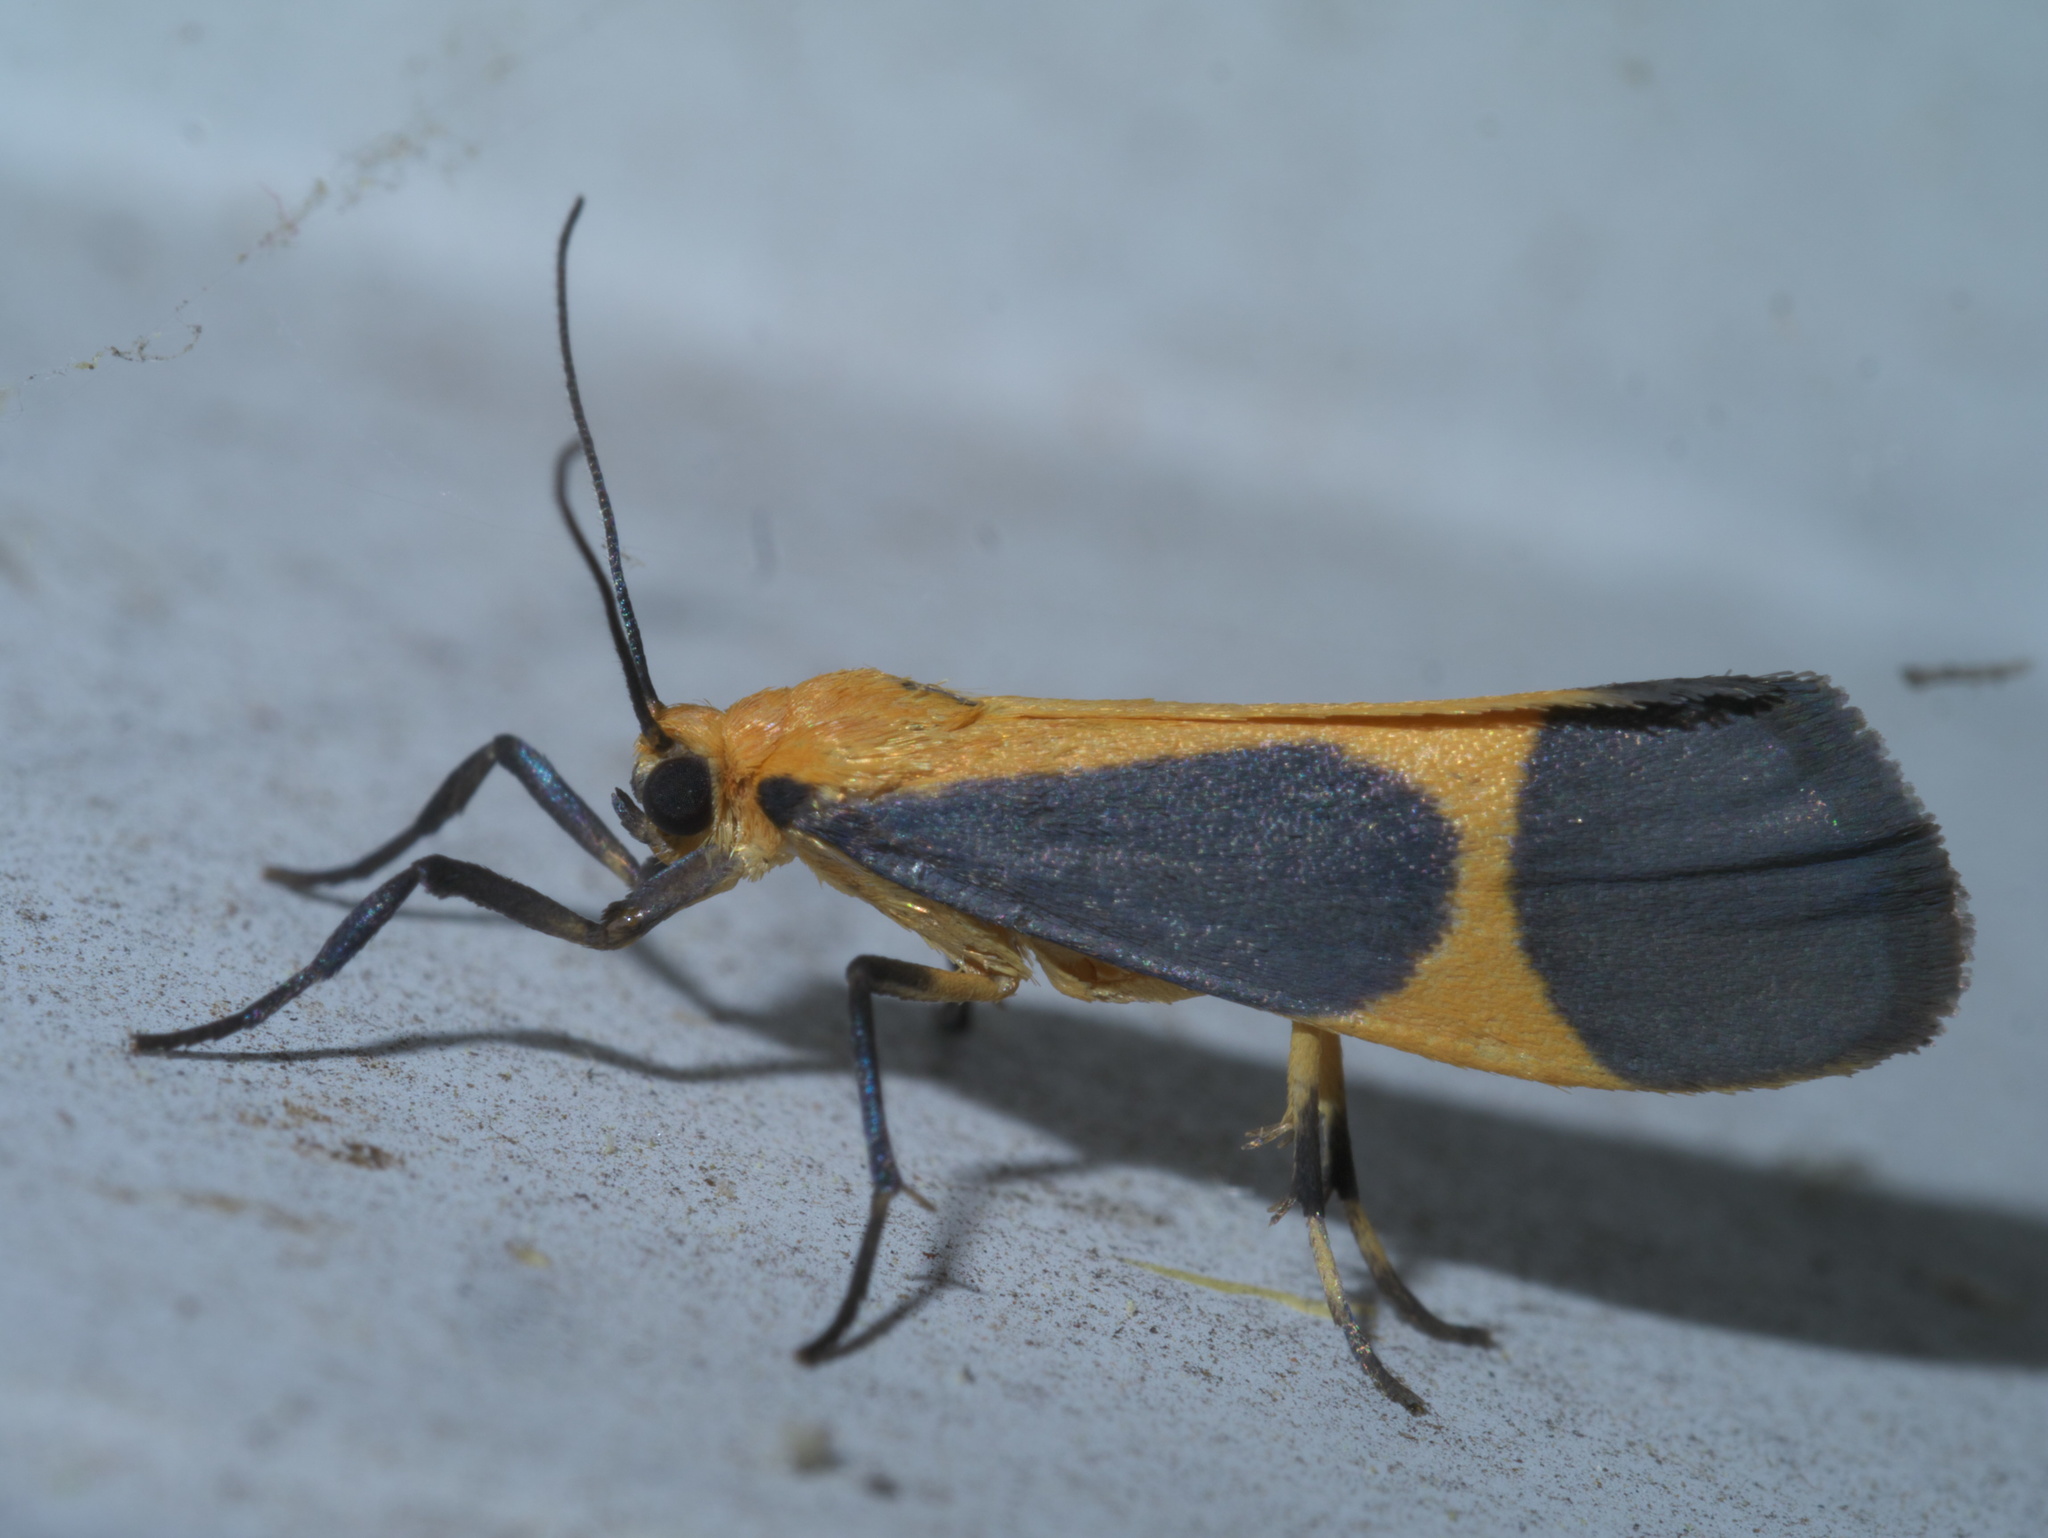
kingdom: Animalia
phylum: Arthropoda
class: Insecta
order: Lepidoptera
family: Erebidae
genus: Cisthene
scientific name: Cisthene picta
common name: Pictured lichen moth
